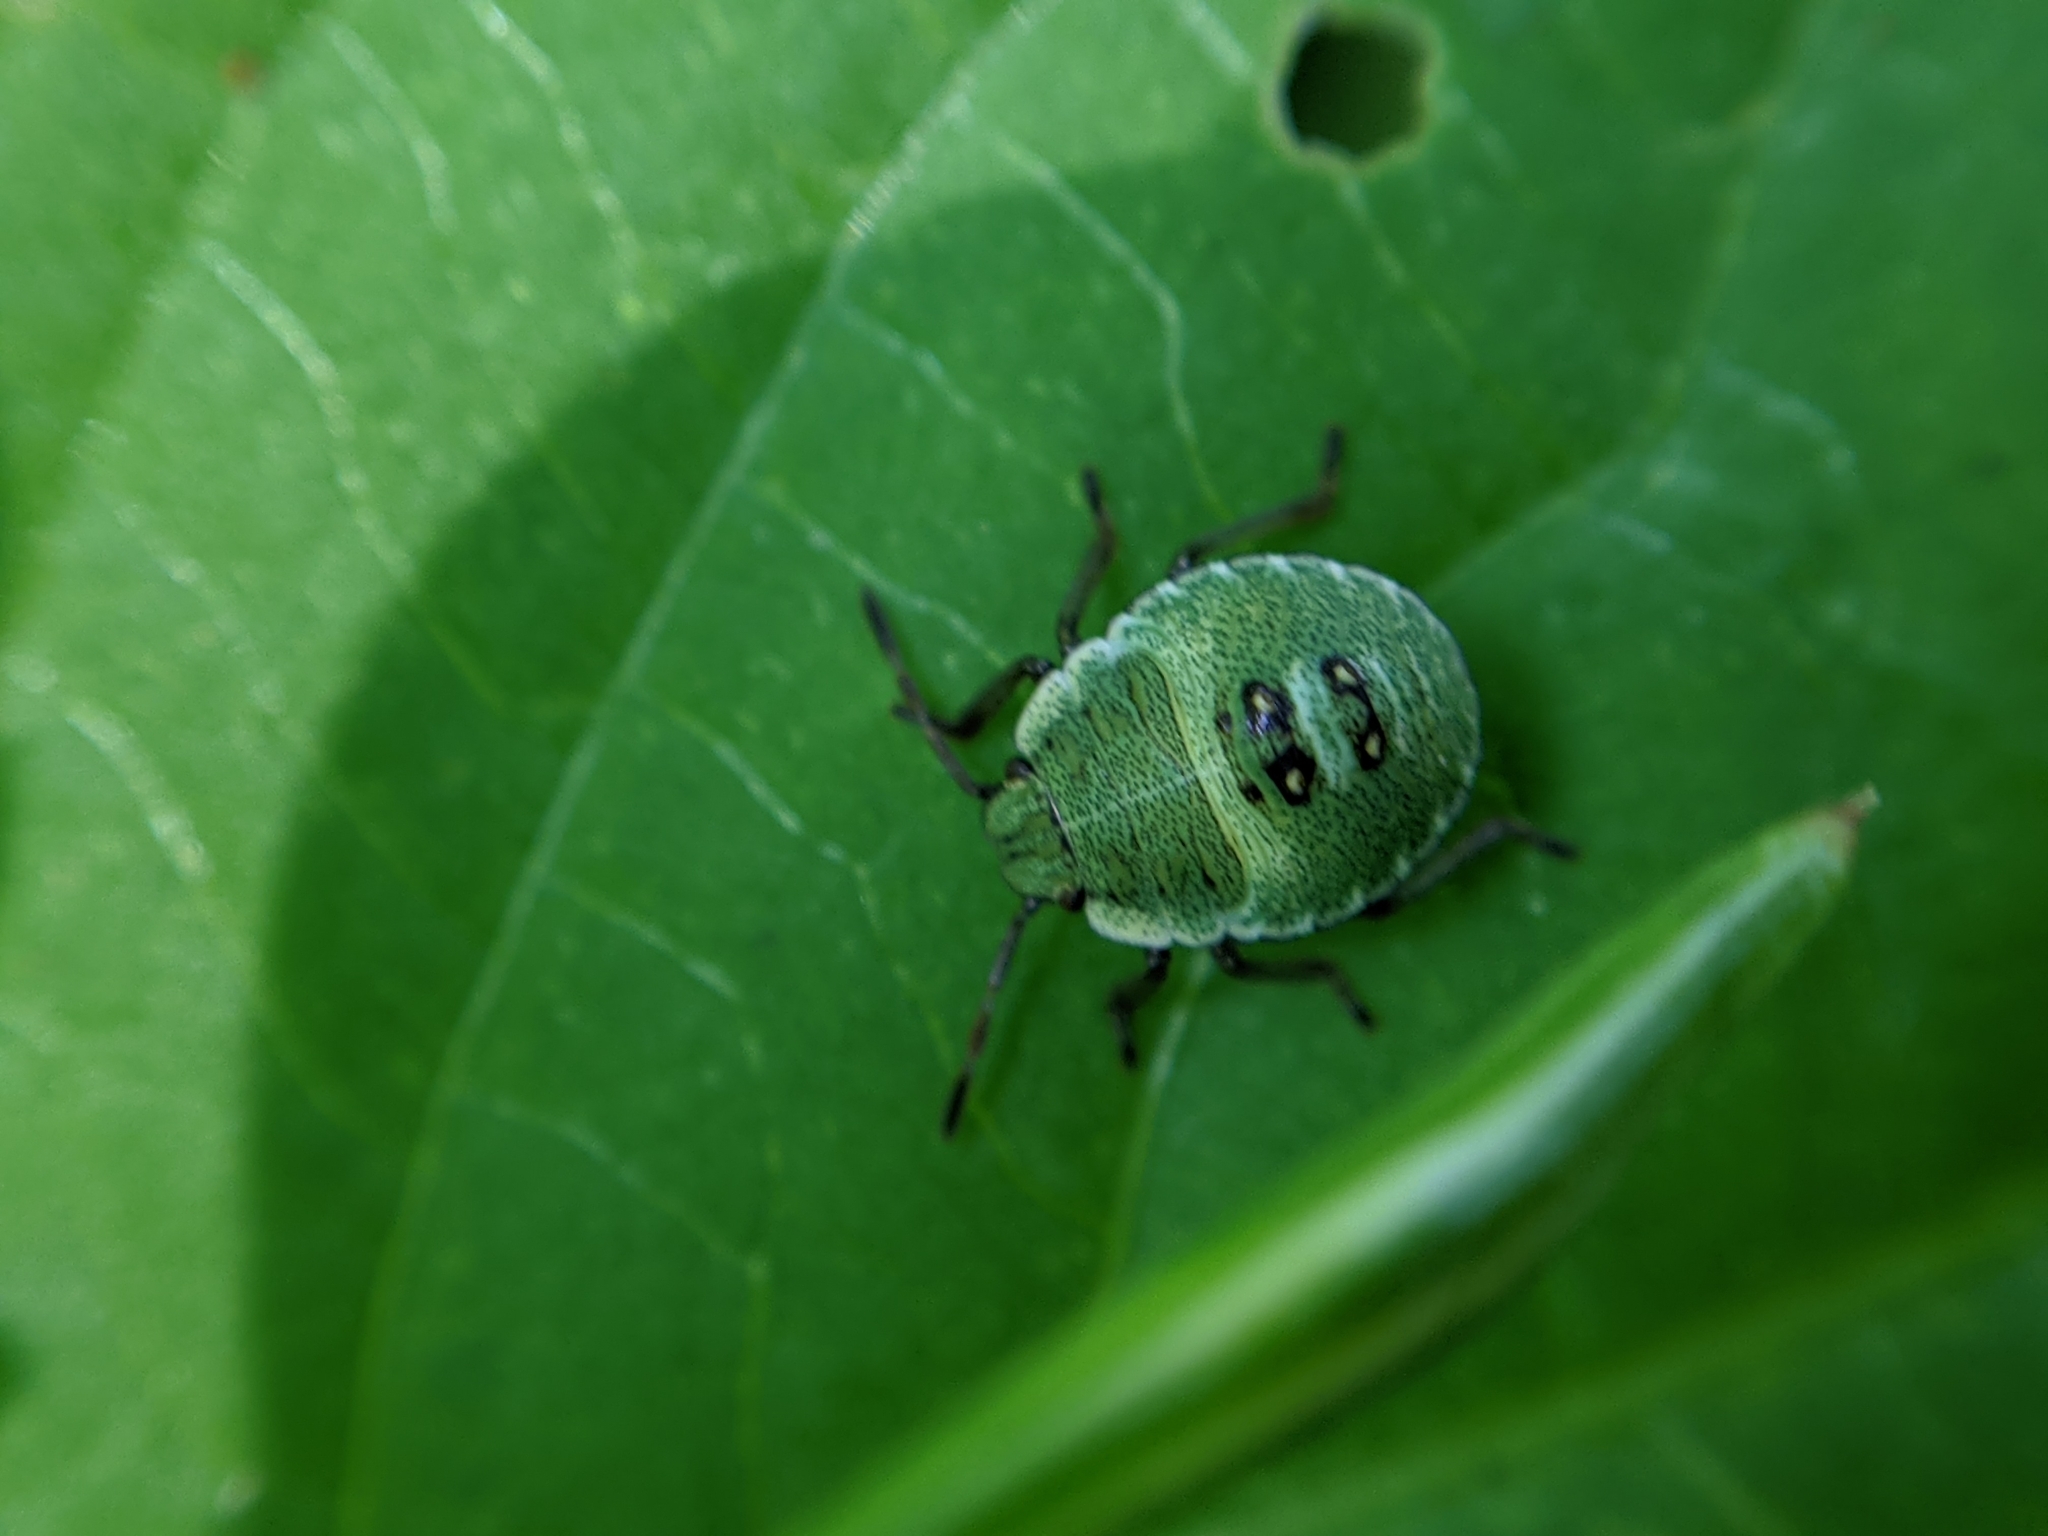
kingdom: Animalia
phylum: Arthropoda
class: Insecta
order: Hemiptera
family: Pentatomidae
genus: Palomena
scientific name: Palomena prasina
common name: Green shieldbug
